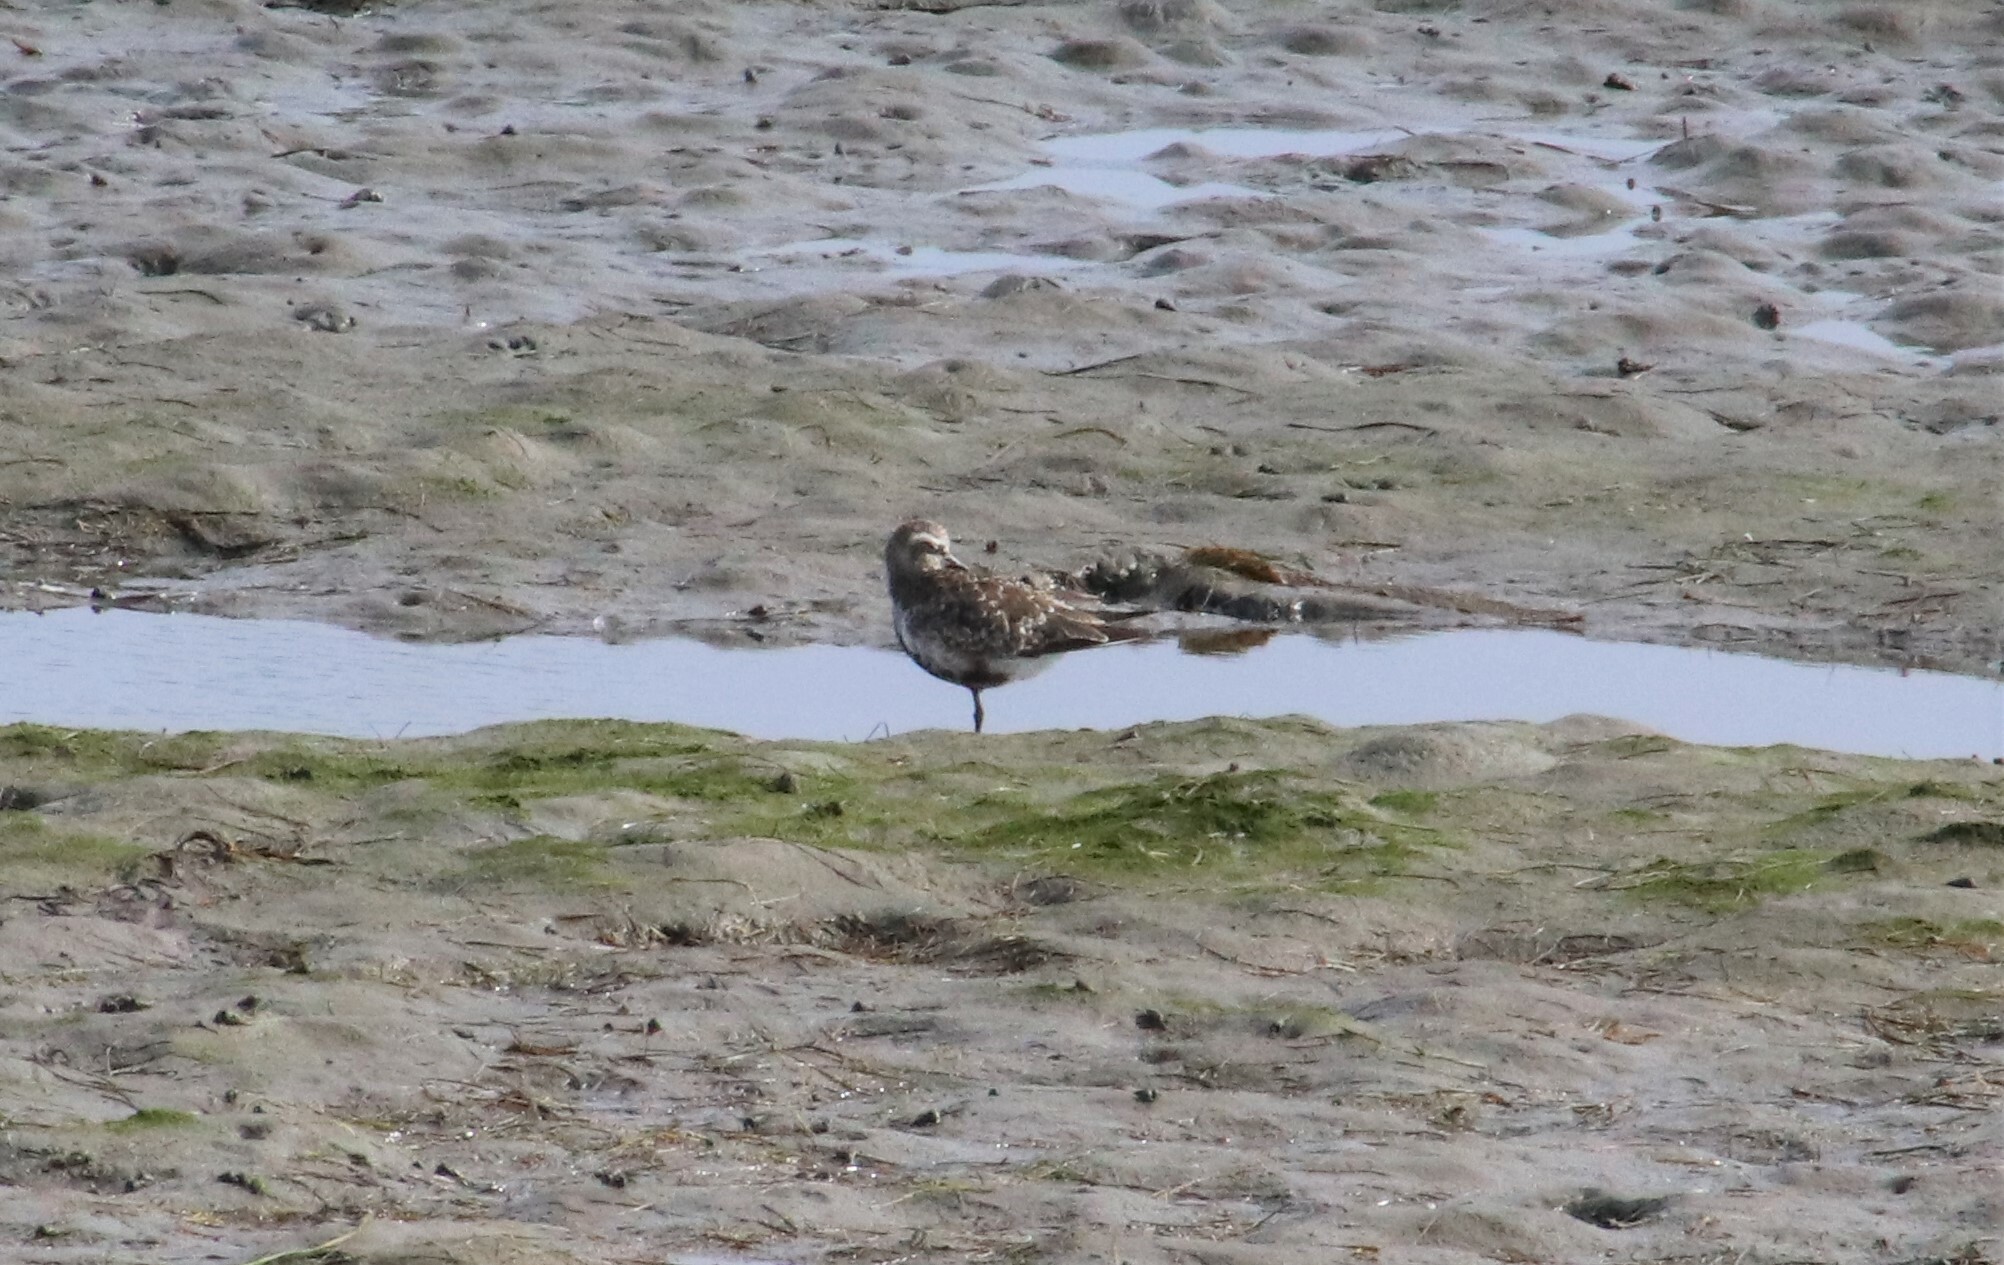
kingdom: Animalia
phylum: Chordata
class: Aves
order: Charadriiformes
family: Charadriidae
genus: Pluvialis
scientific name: Pluvialis squatarola
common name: Grey plover
